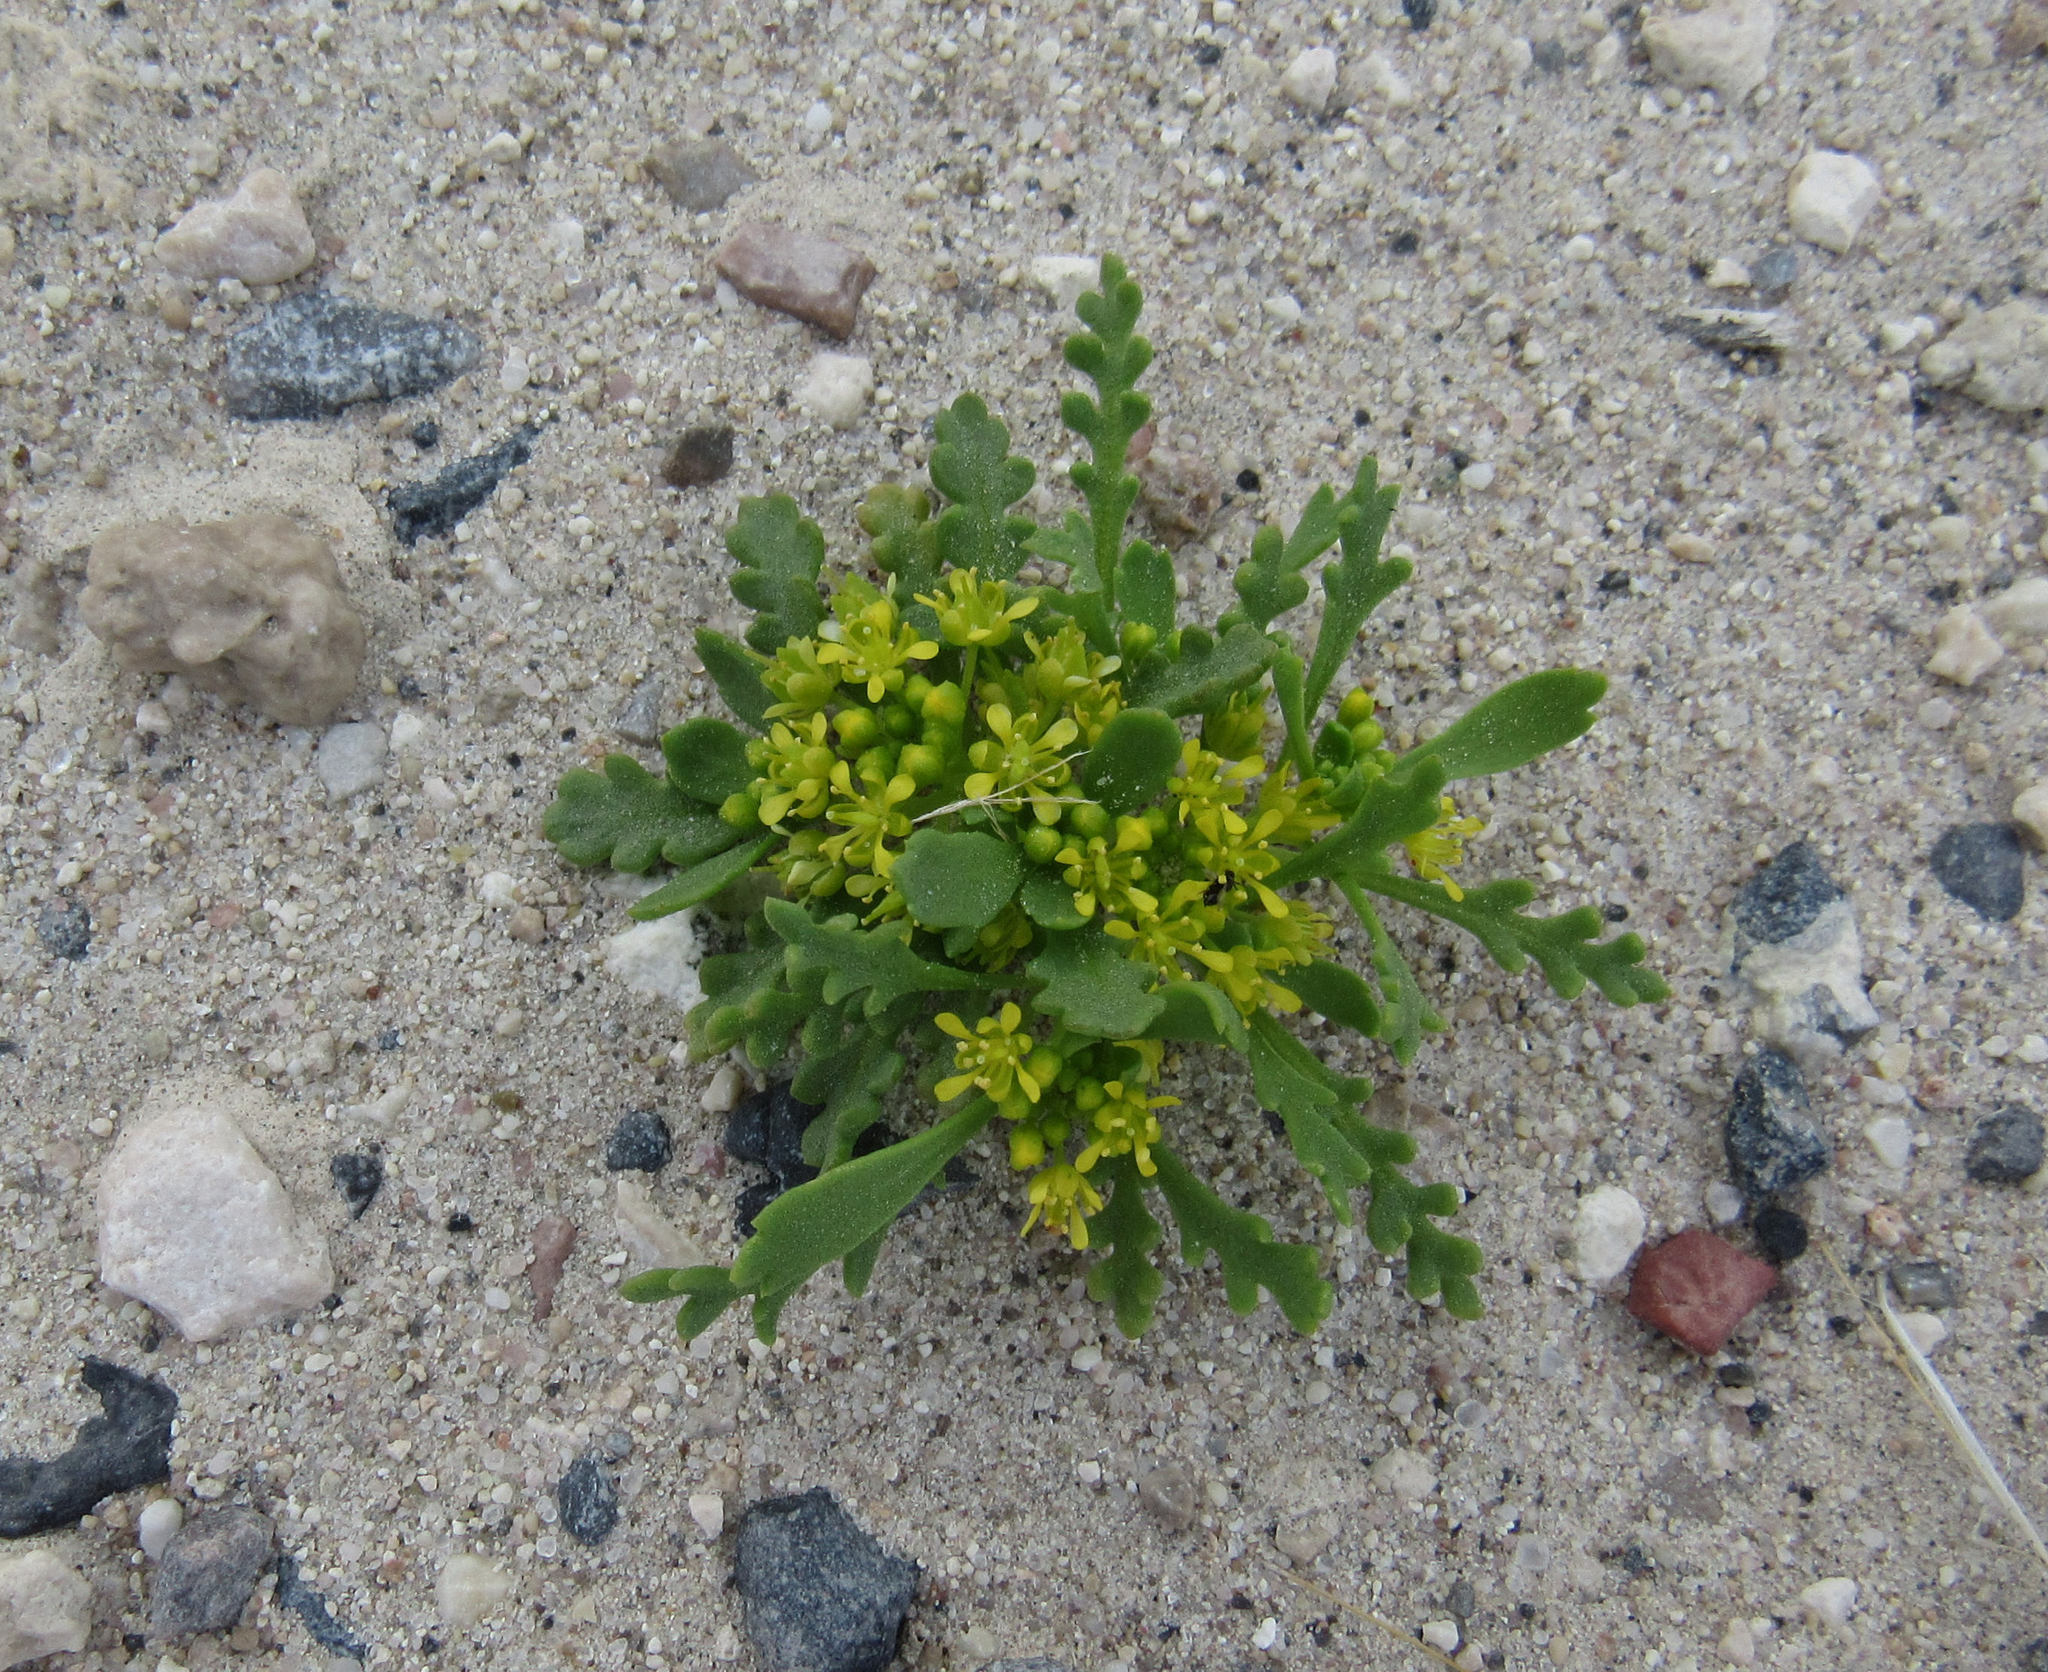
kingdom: Plantae
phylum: Tracheophyta
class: Magnoliopsida
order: Brassicales
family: Brassicaceae
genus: Lepidium
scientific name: Lepidium flavum
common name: Yellow pepperwort
